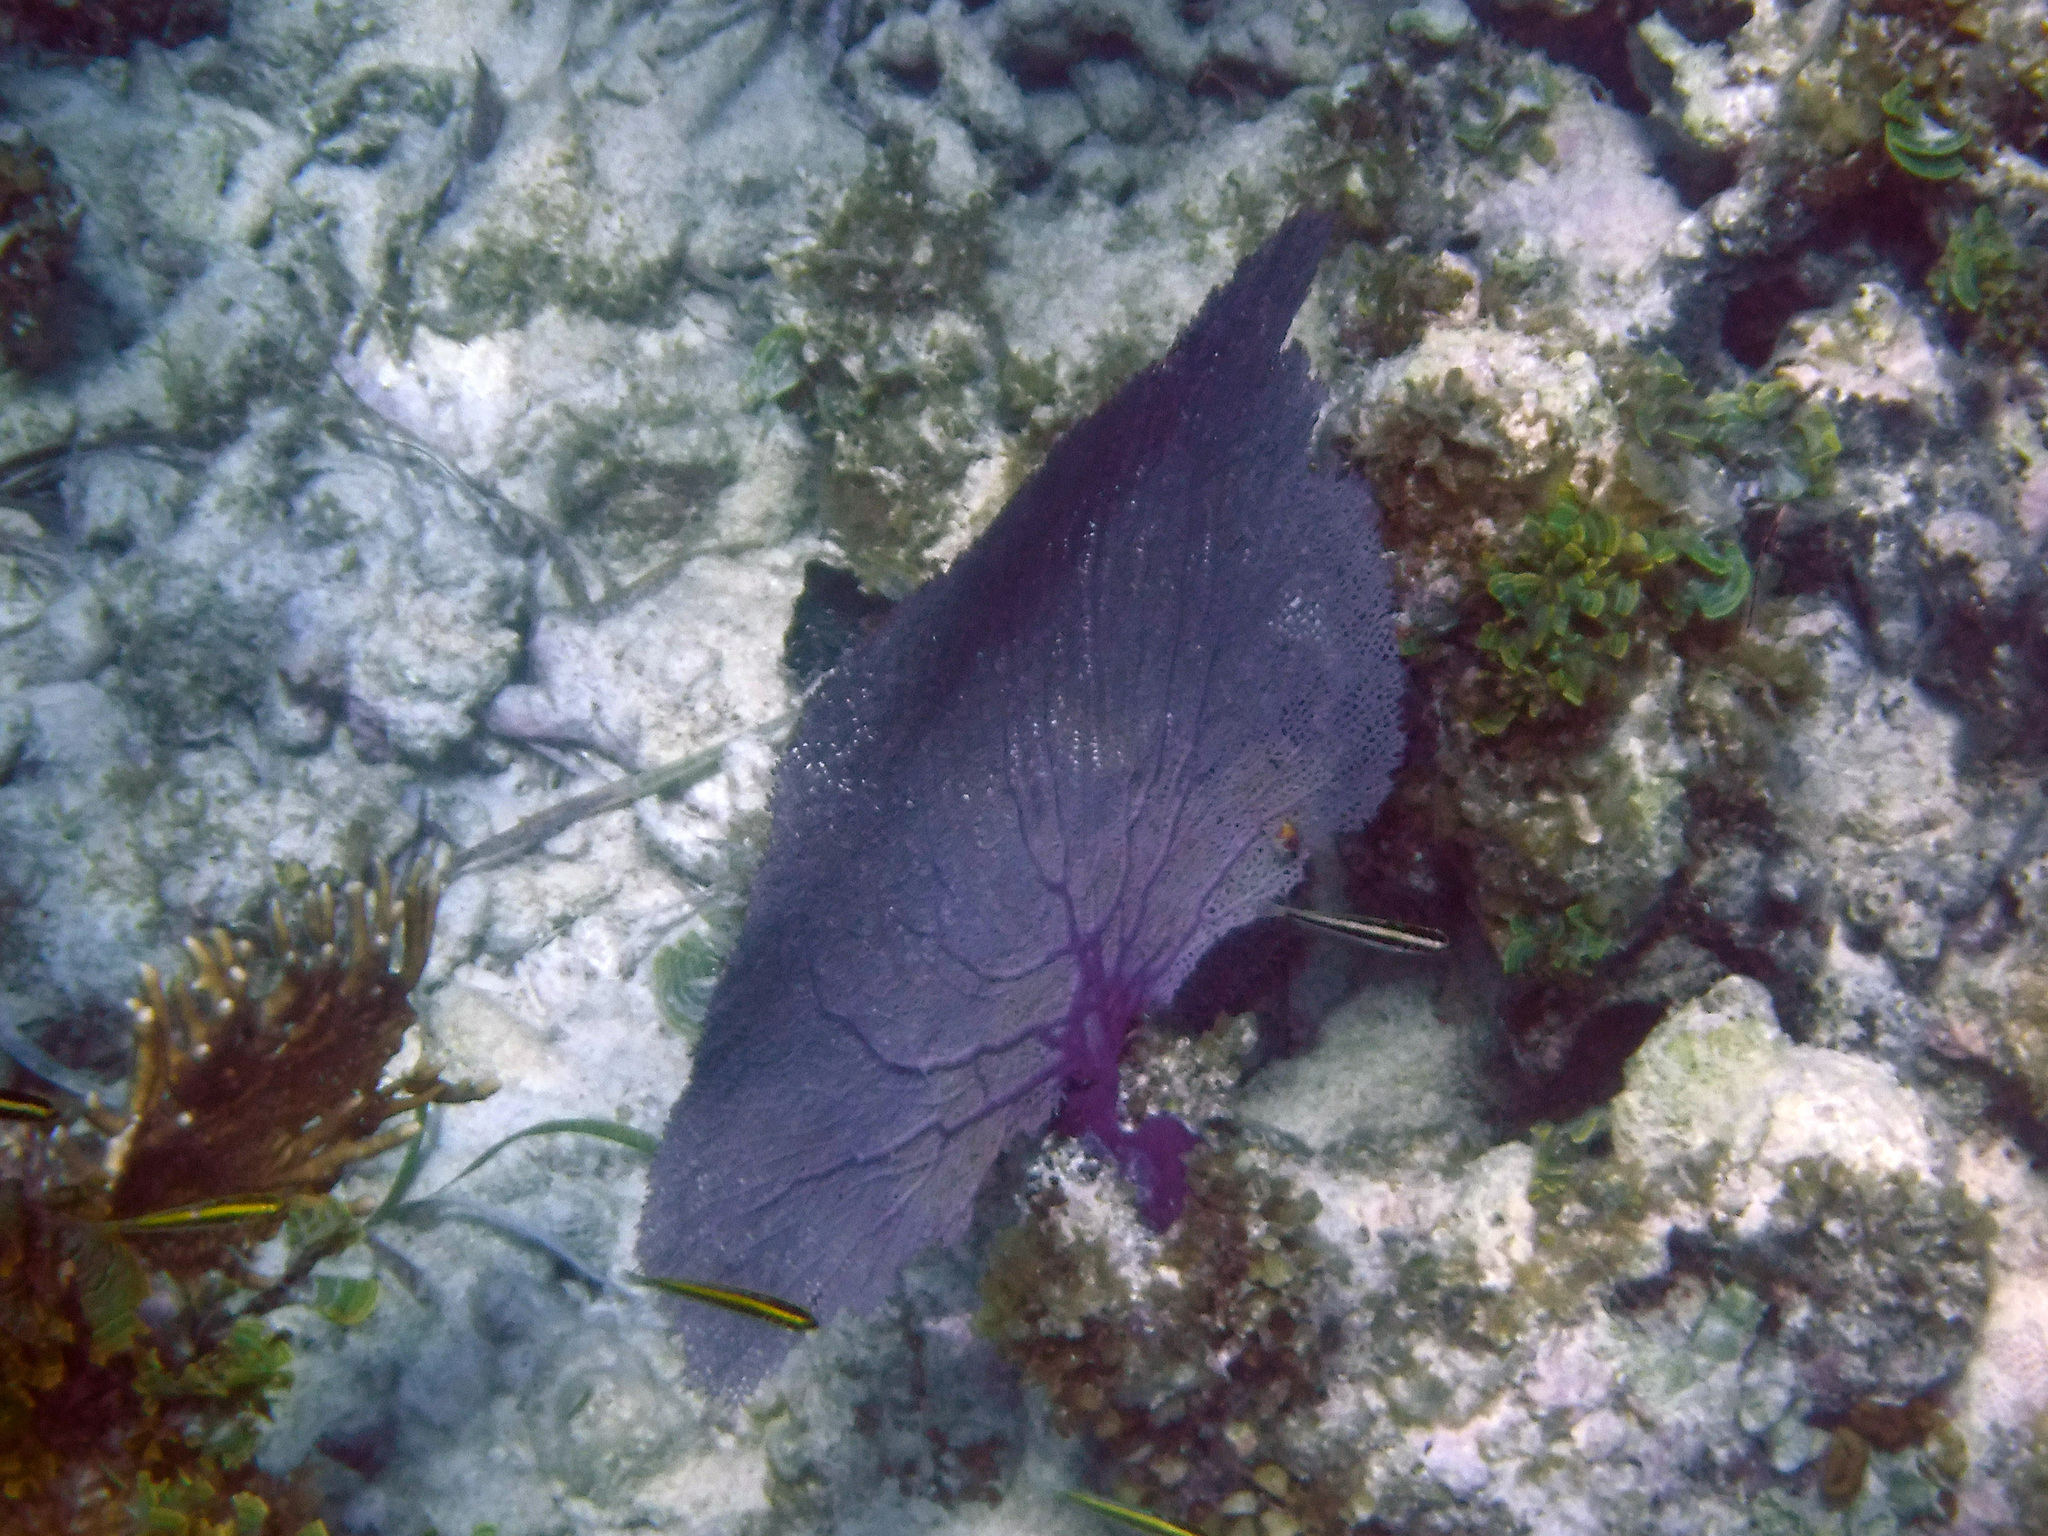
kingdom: Animalia
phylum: Cnidaria
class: Anthozoa
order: Malacalcyonacea
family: Gorgoniidae
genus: Gorgonia
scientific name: Gorgonia ventalina
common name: Common sea fan
